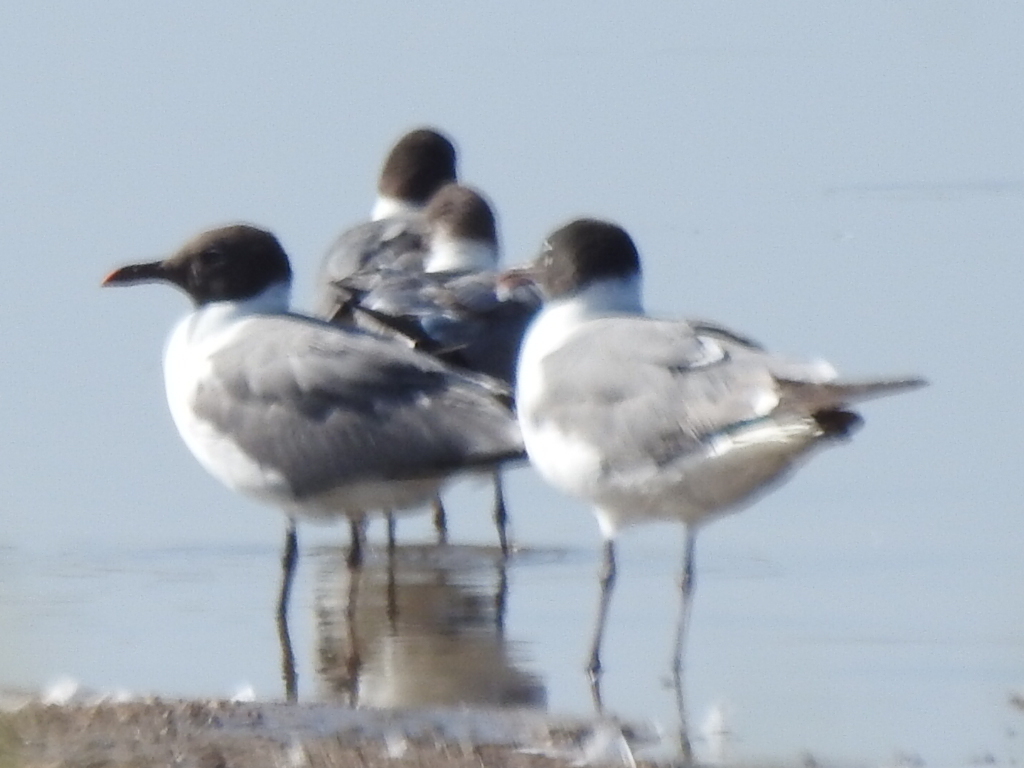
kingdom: Animalia
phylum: Chordata
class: Aves
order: Charadriiformes
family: Laridae
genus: Leucophaeus
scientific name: Leucophaeus atricilla
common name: Laughing gull
